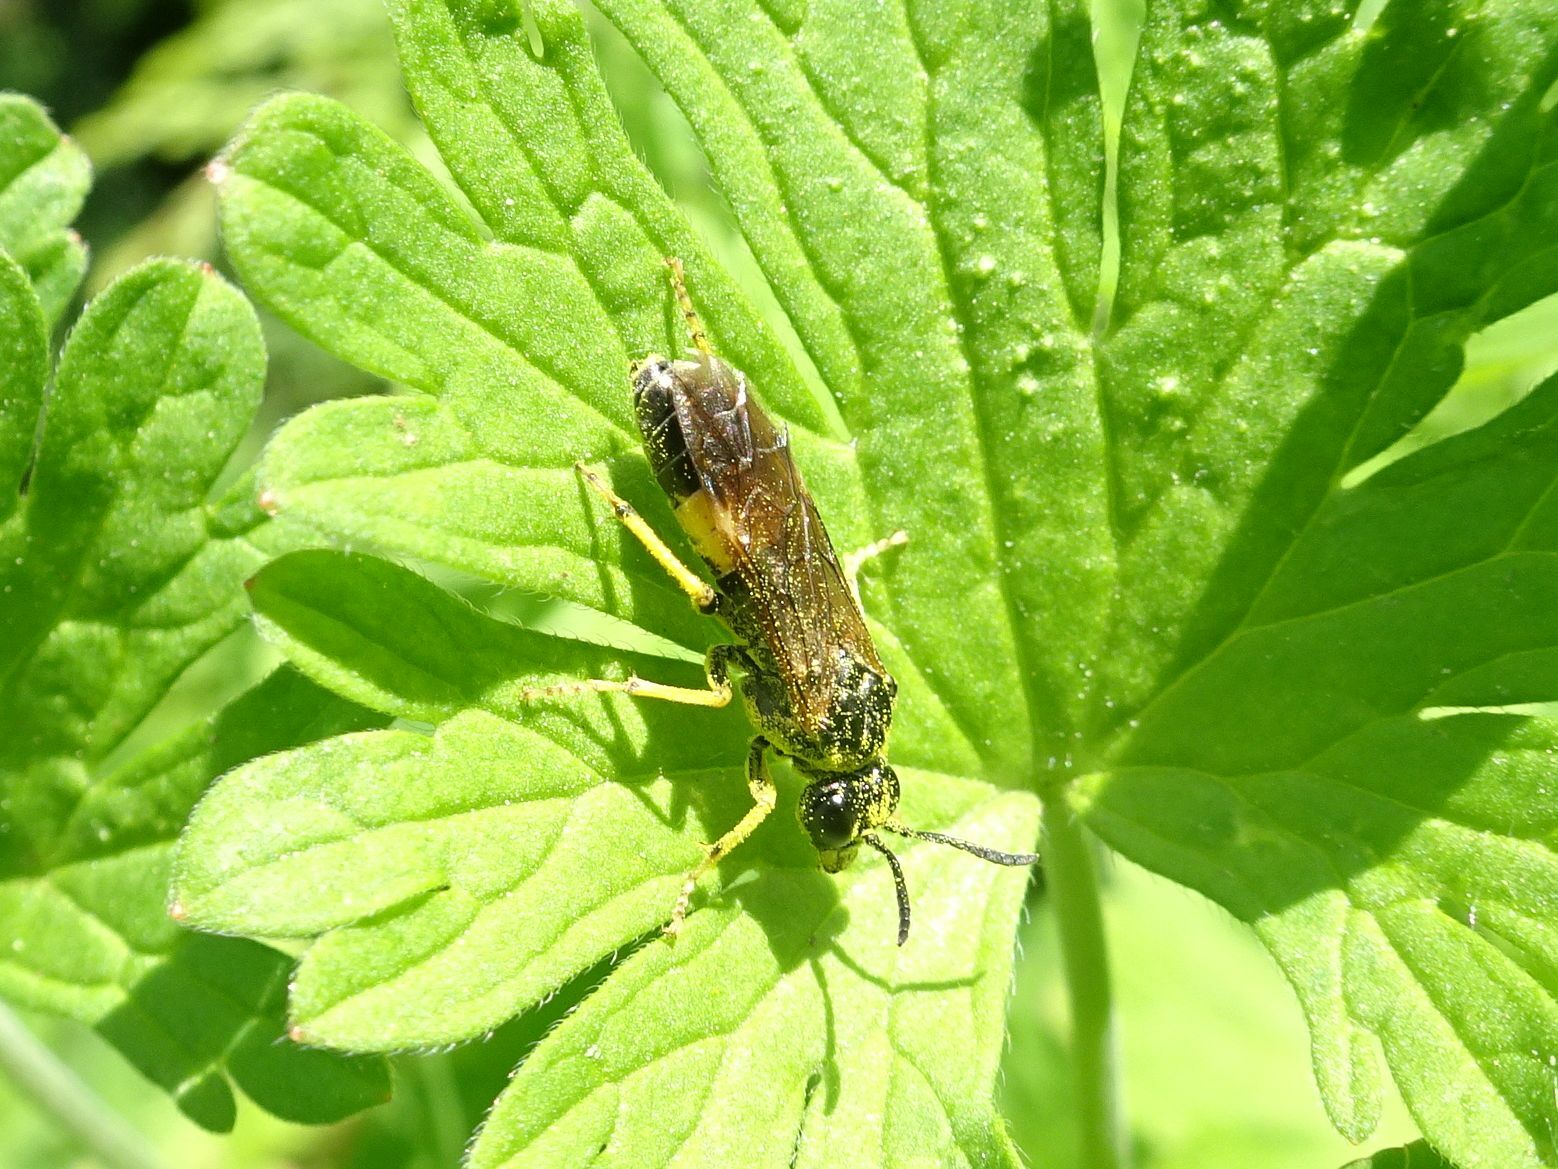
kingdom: Animalia
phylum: Arthropoda
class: Insecta
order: Hymenoptera
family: Tenthredinidae
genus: Paratenthredo
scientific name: Paratenthredo frauenfeldii
